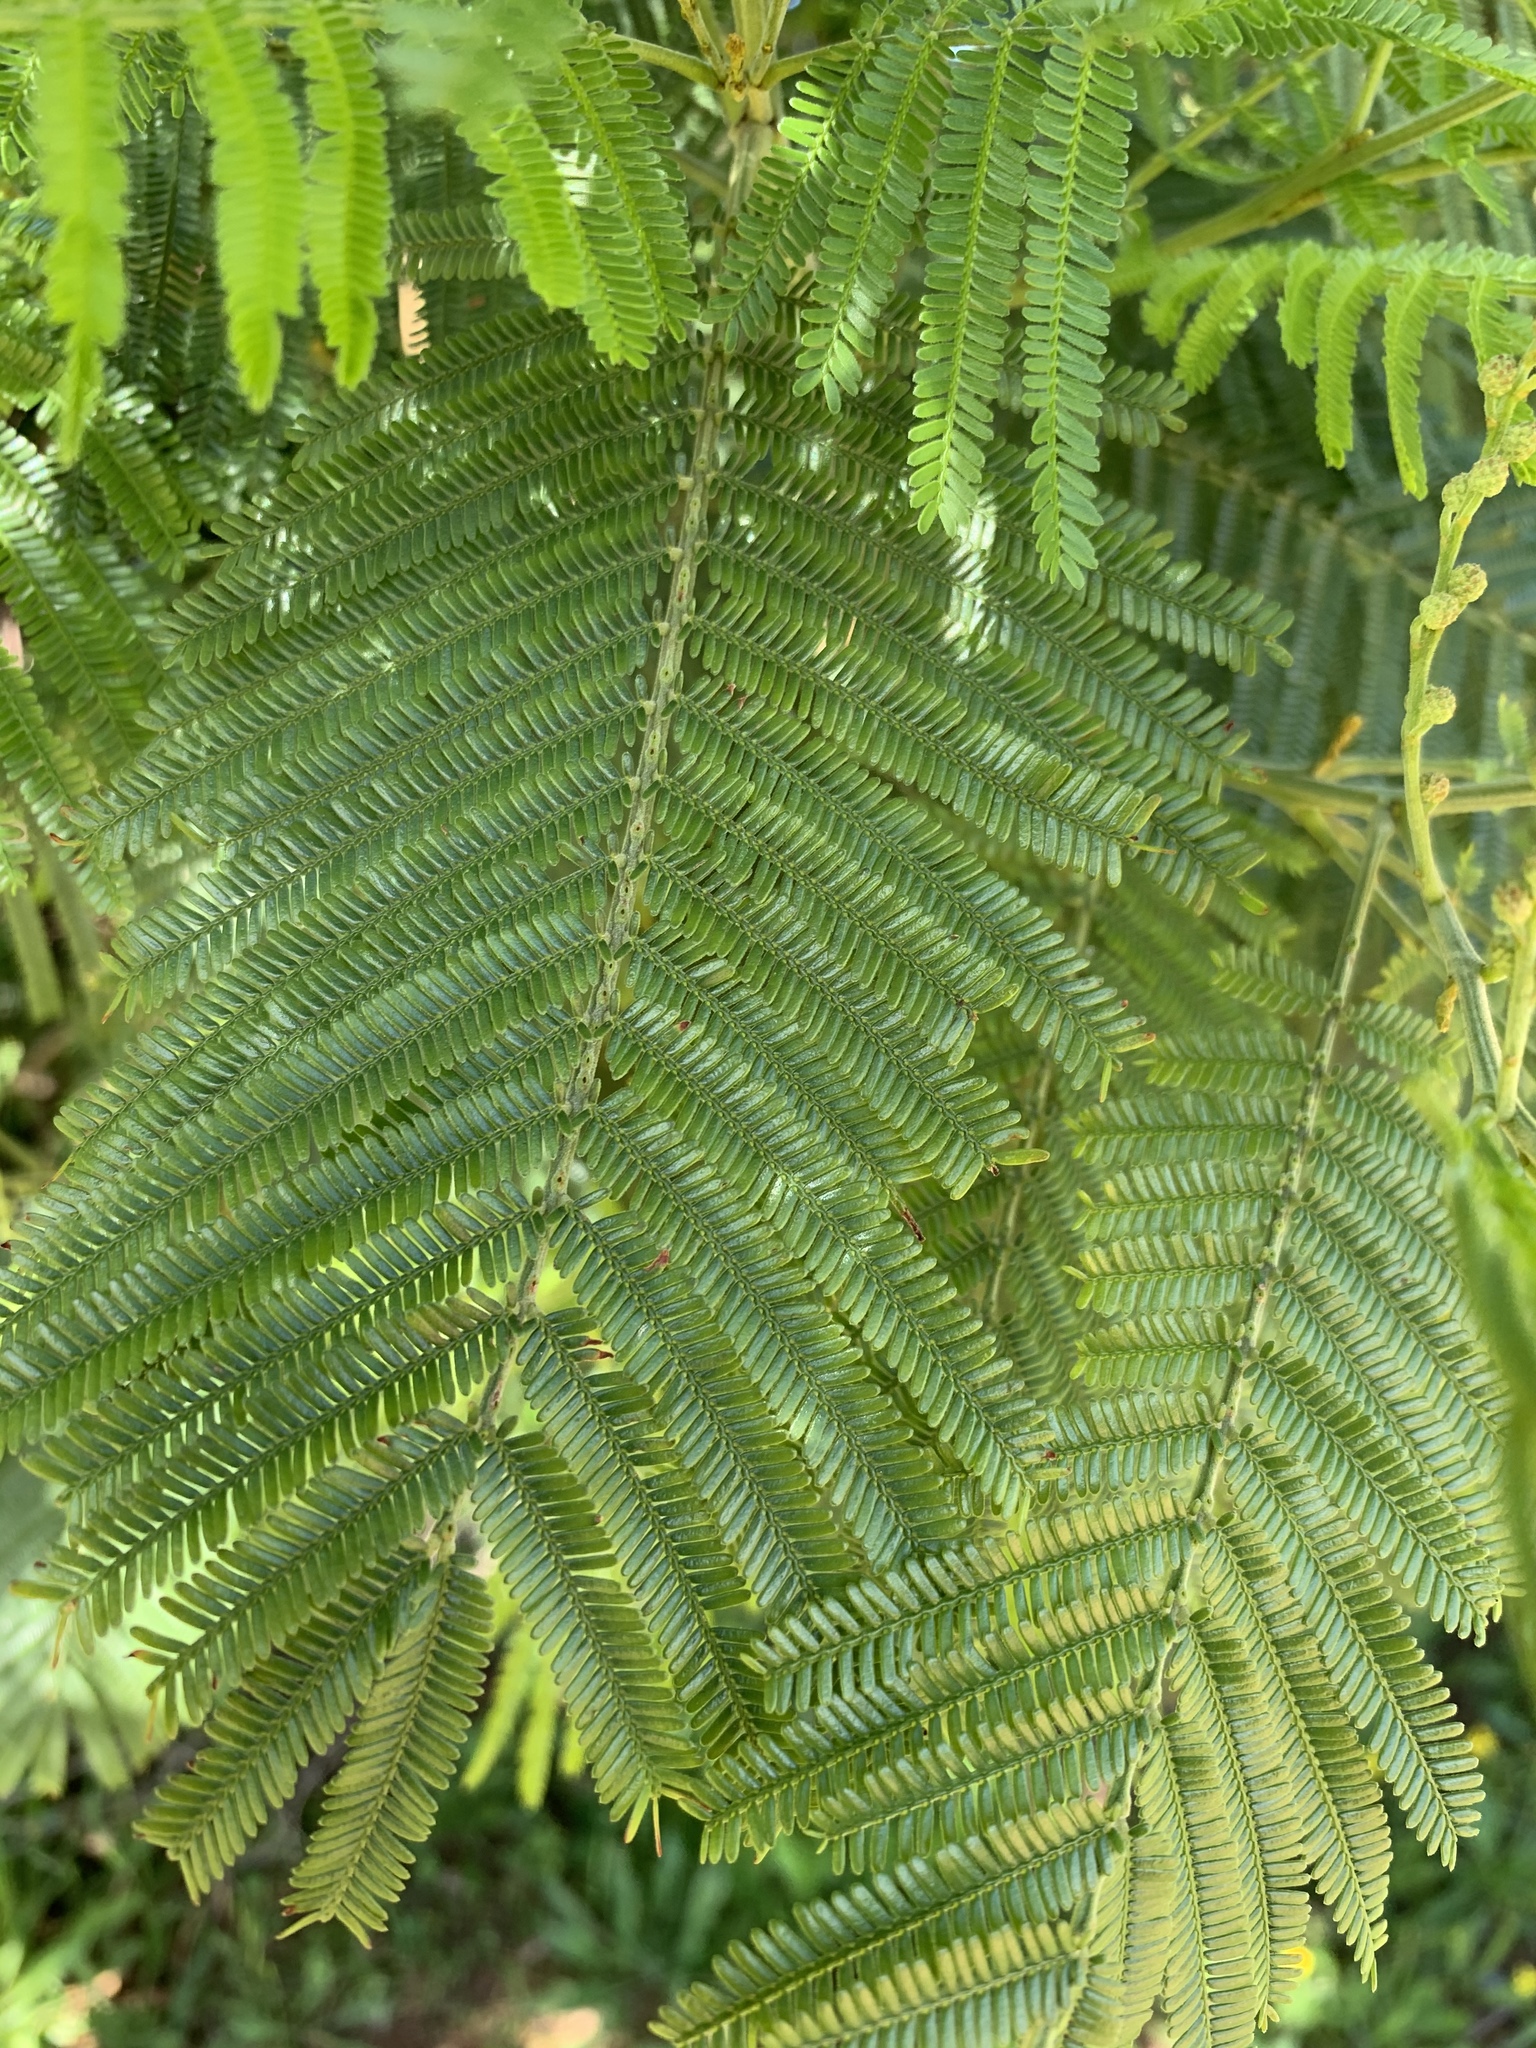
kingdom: Plantae
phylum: Tracheophyta
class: Magnoliopsida
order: Fabales
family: Fabaceae
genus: Acacia
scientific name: Acacia mearnsii
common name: Black wattle
